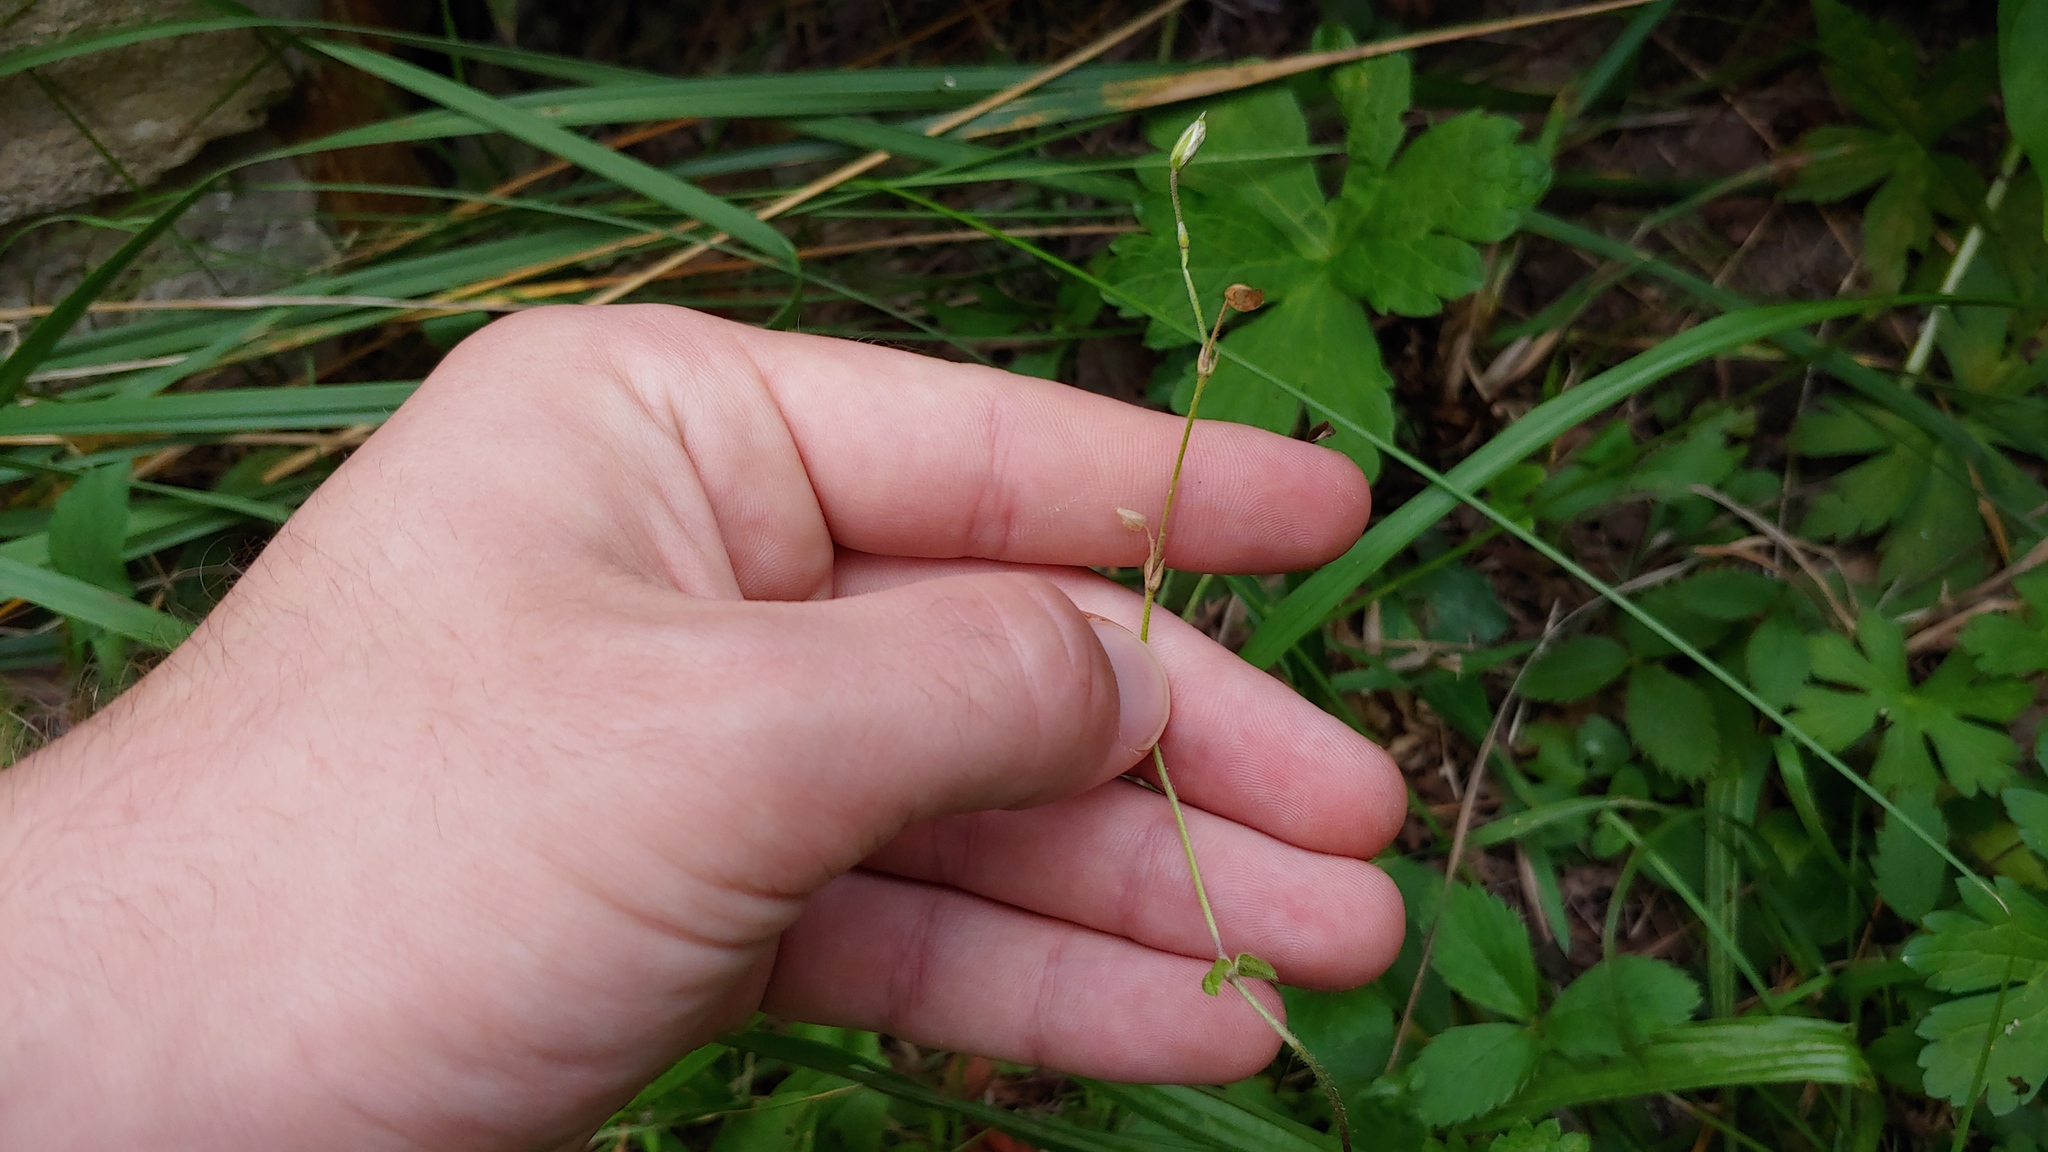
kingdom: Plantae
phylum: Tracheophyta
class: Magnoliopsida
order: Caryophyllales
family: Caryophyllaceae
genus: Cerastium
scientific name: Cerastium fontanum
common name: Common mouse-ear
